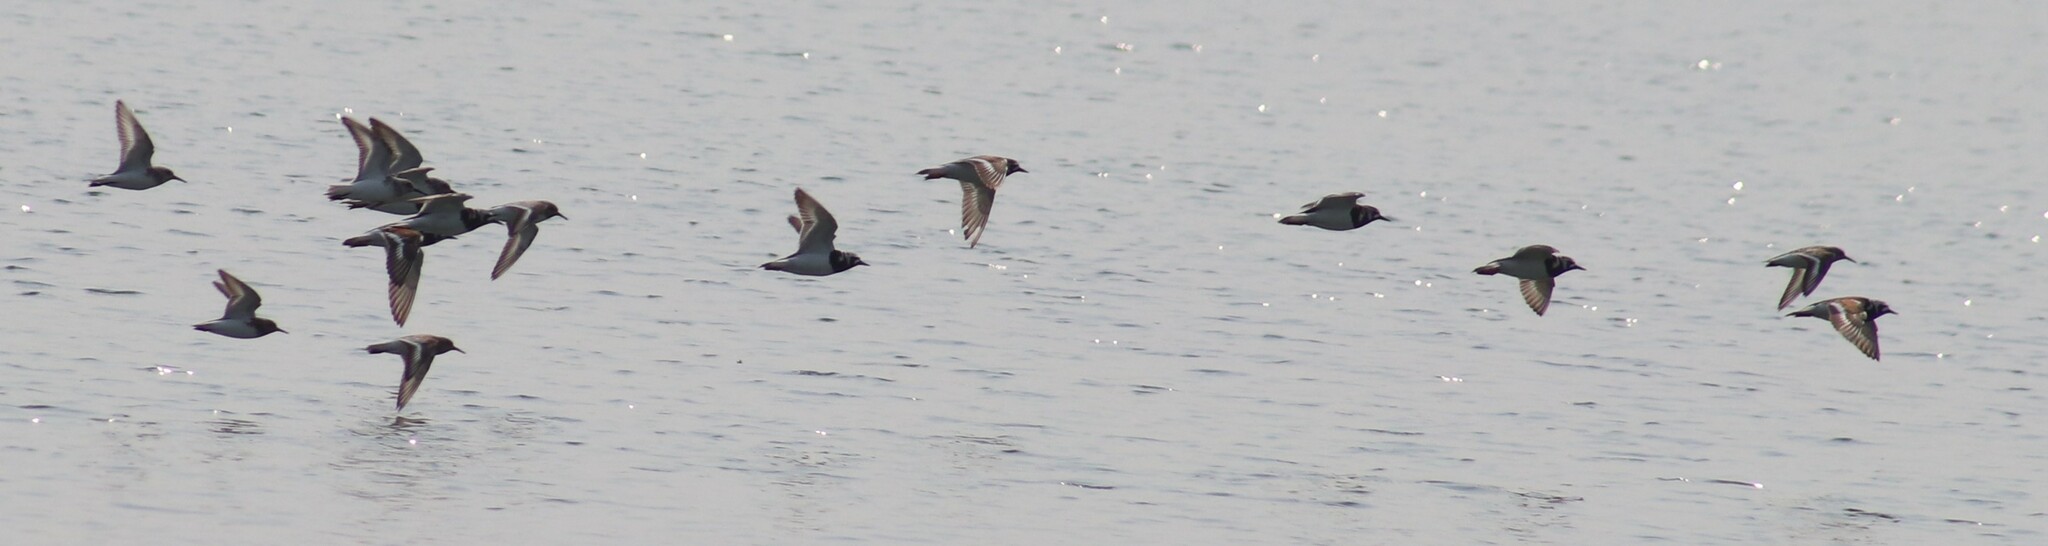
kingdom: Animalia
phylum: Chordata
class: Aves
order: Charadriiformes
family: Scolopacidae
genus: Arenaria
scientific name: Arenaria interpres
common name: Ruddy turnstone
